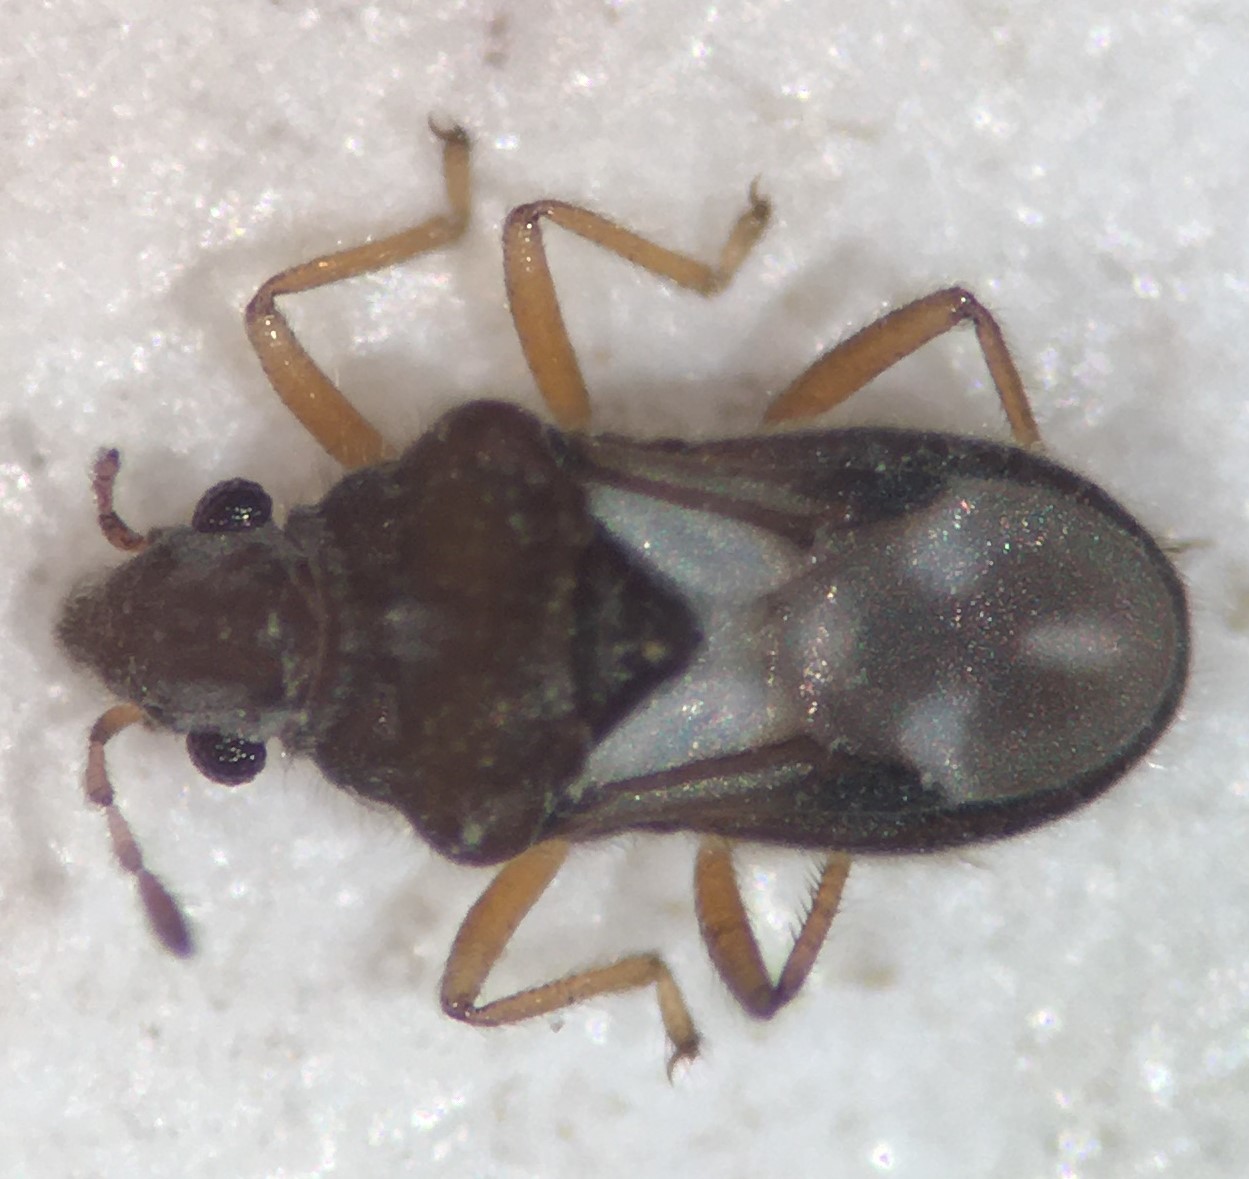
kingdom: Animalia
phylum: Arthropoda
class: Insecta
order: Hemiptera
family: Hebridae
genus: Merragata
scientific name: Merragata hebroides
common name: Velvet water bug
